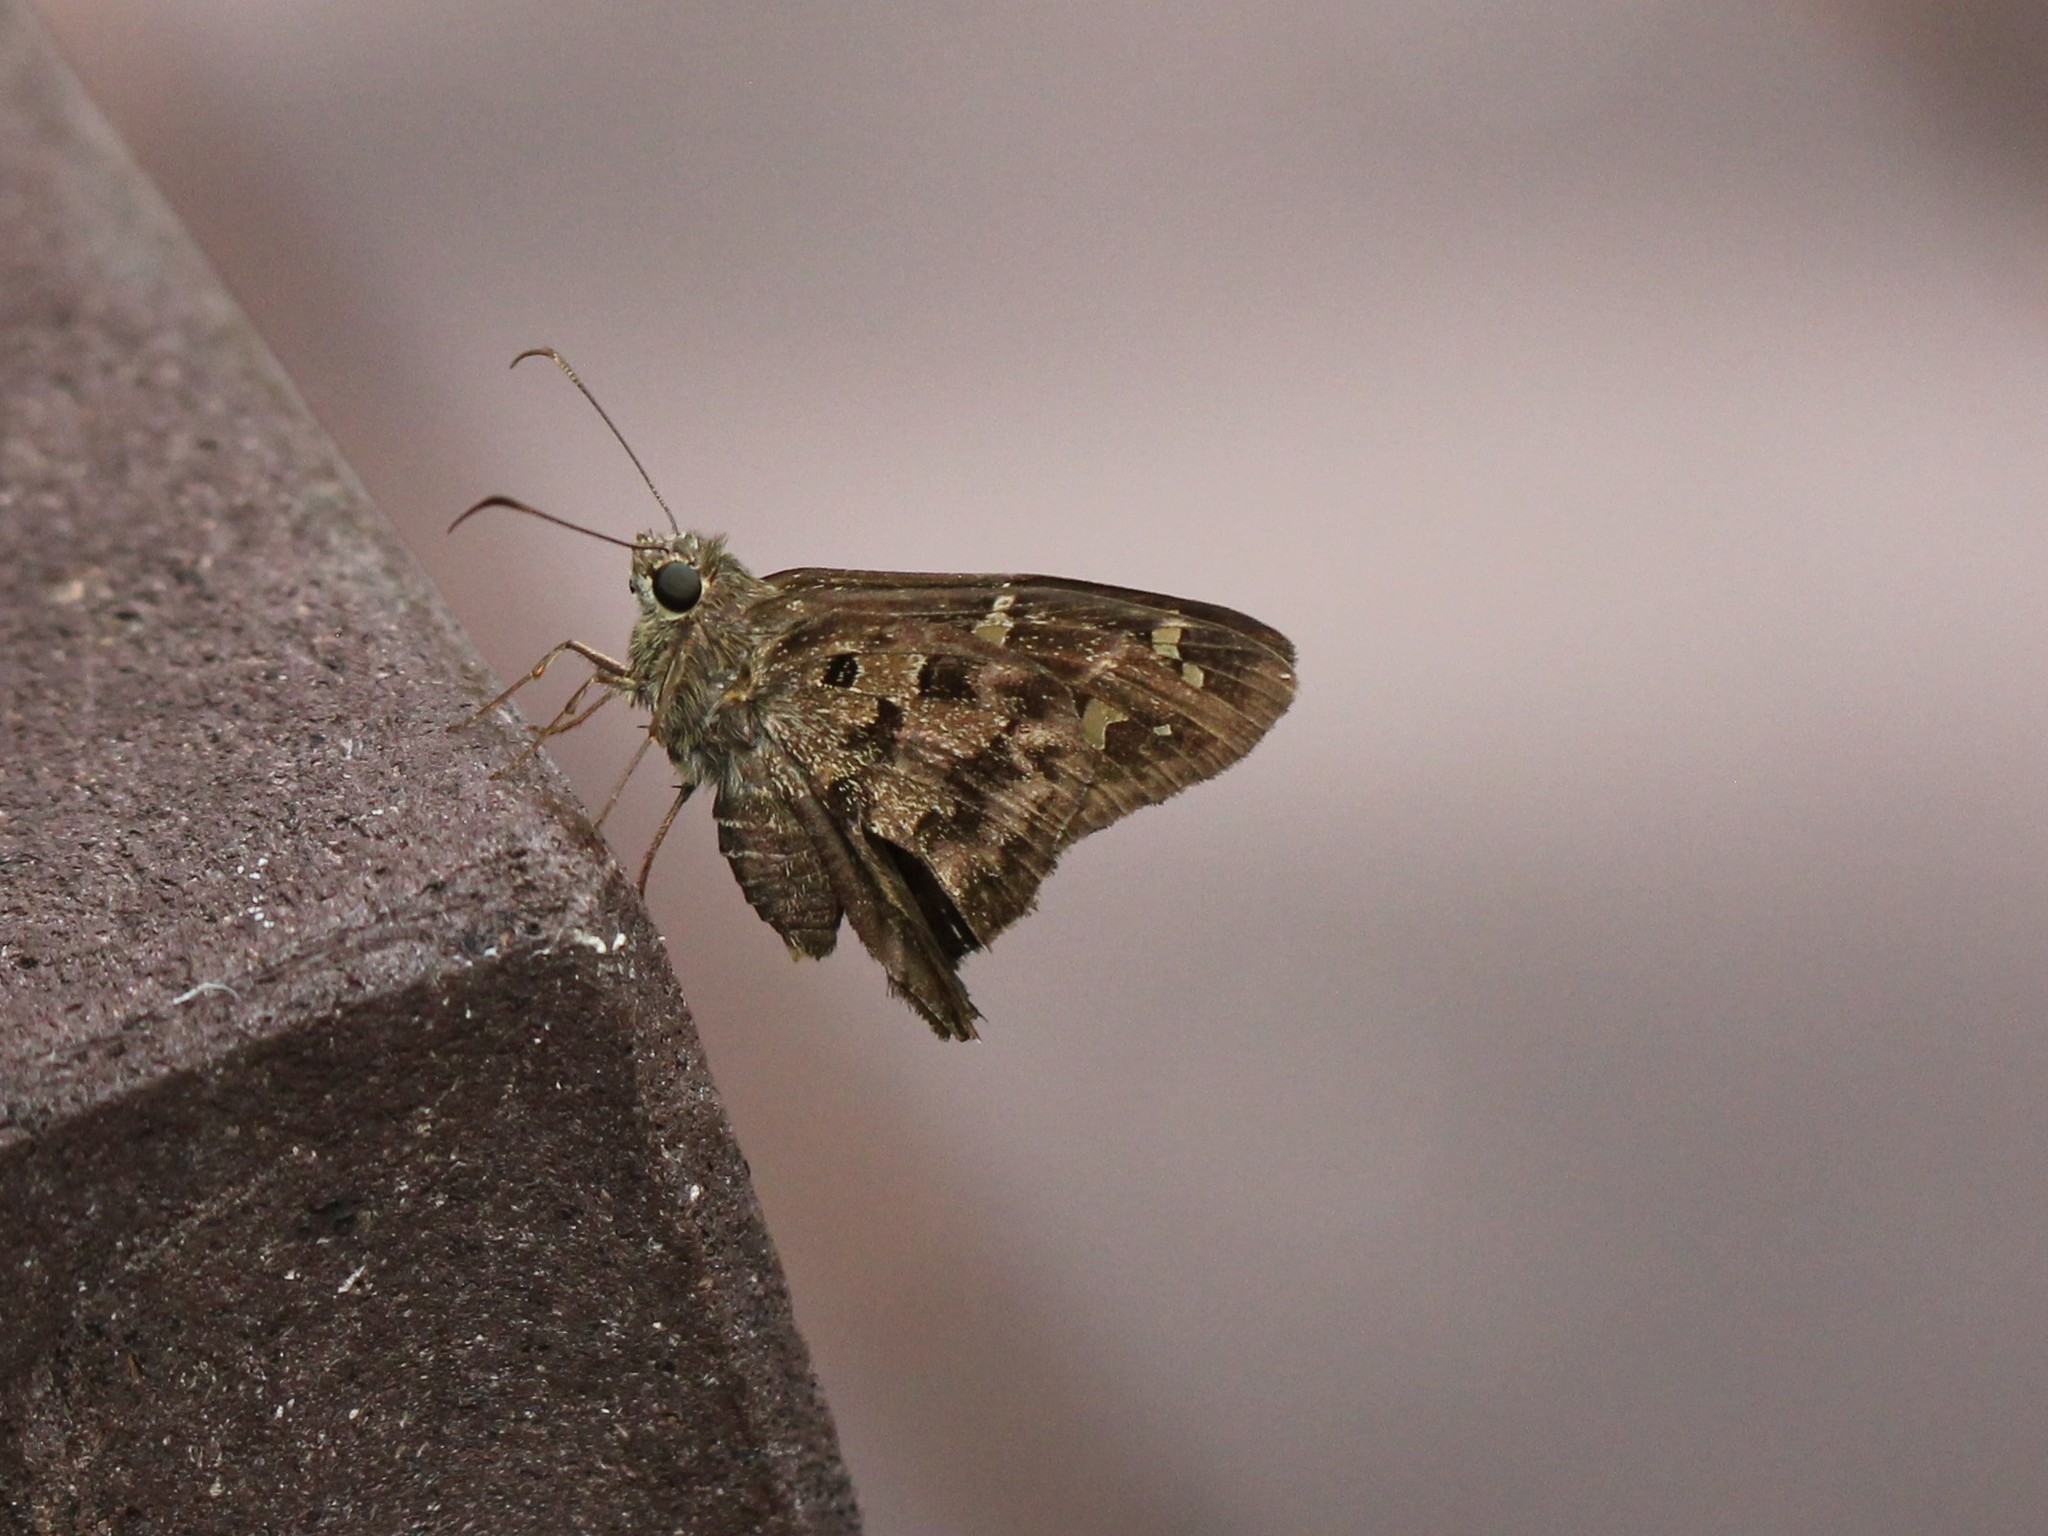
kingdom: Animalia
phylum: Arthropoda
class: Insecta
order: Lepidoptera
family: Hesperiidae
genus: Thorybes
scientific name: Thorybes
